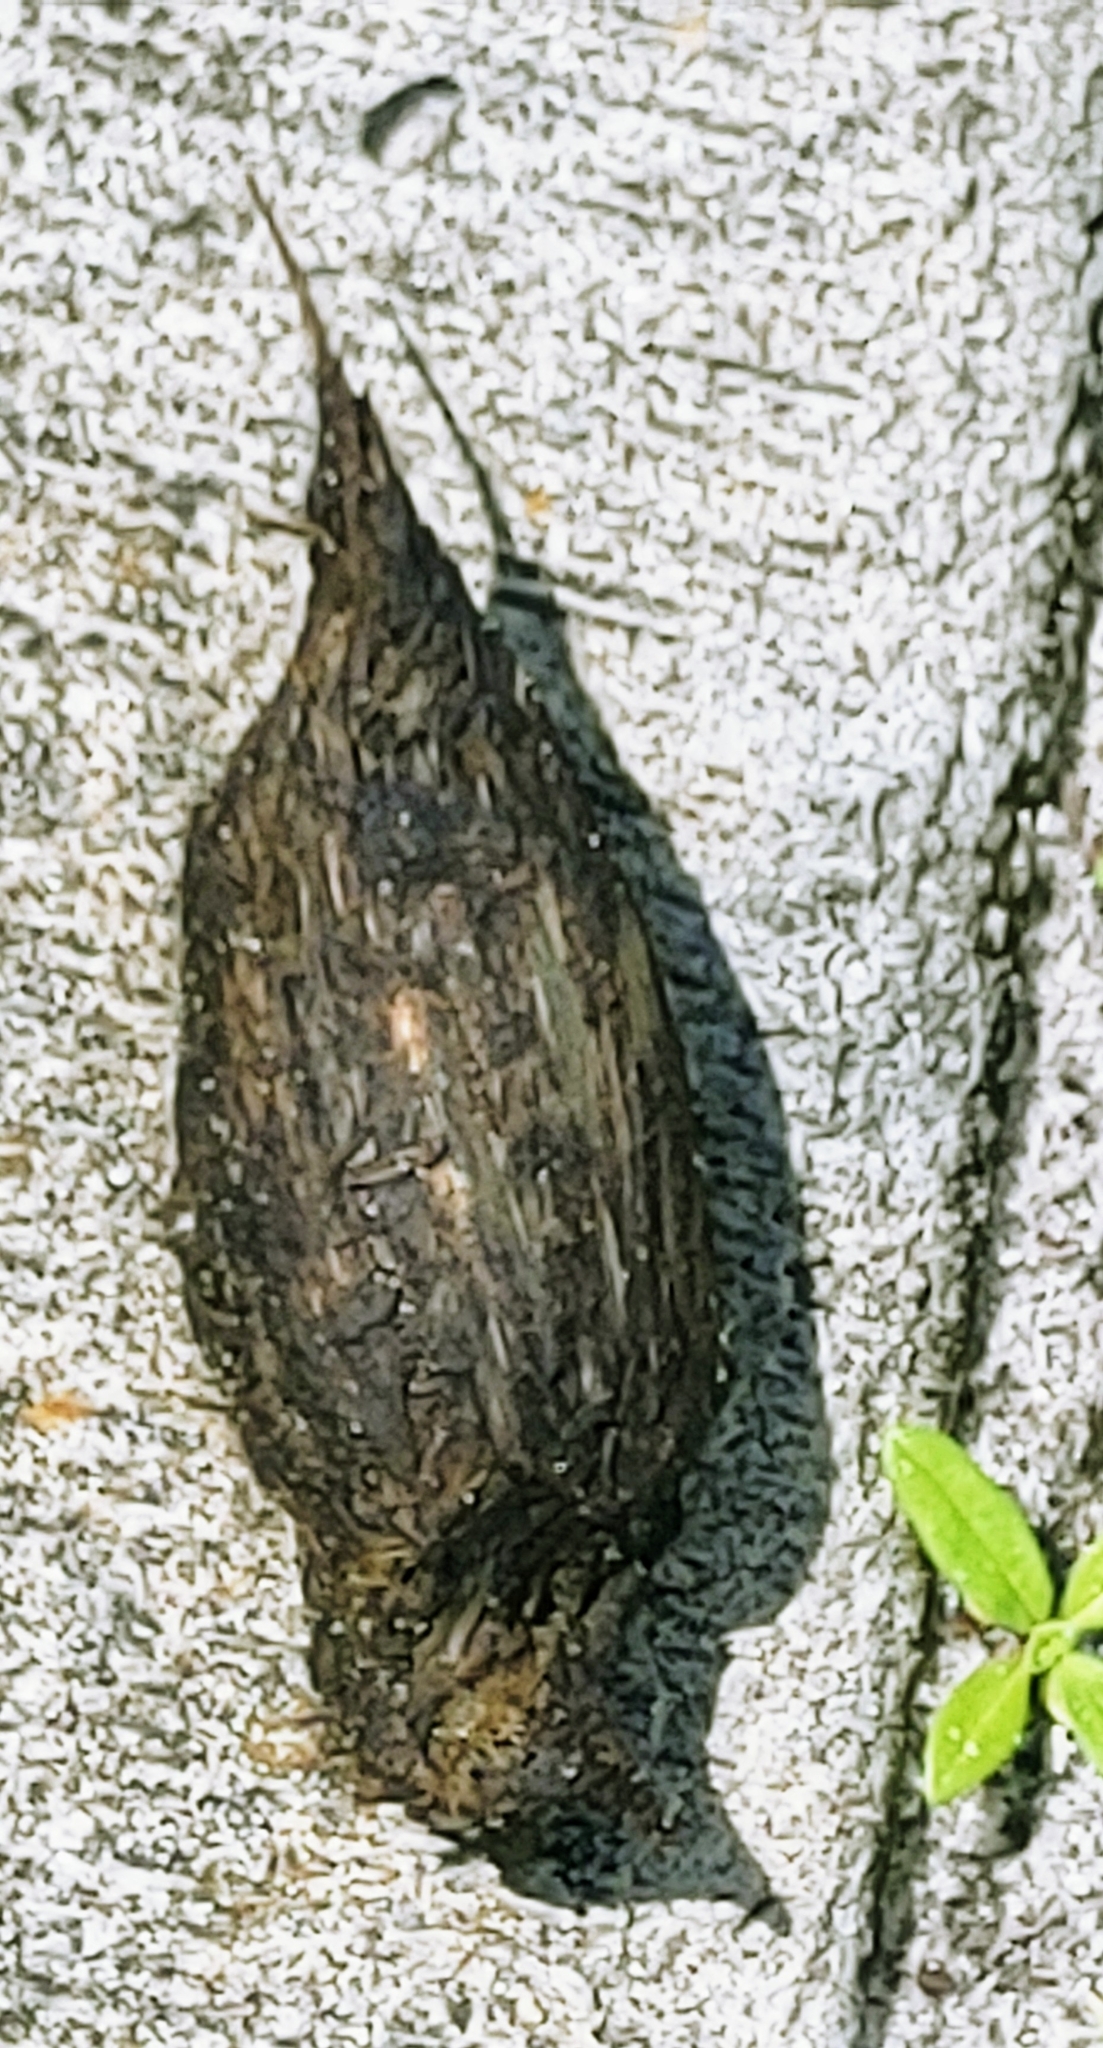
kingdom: Animalia
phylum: Chordata
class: Testudines
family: Testudinidae
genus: Gopherus
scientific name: Gopherus polyphemus
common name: Florida gopher tortoise
